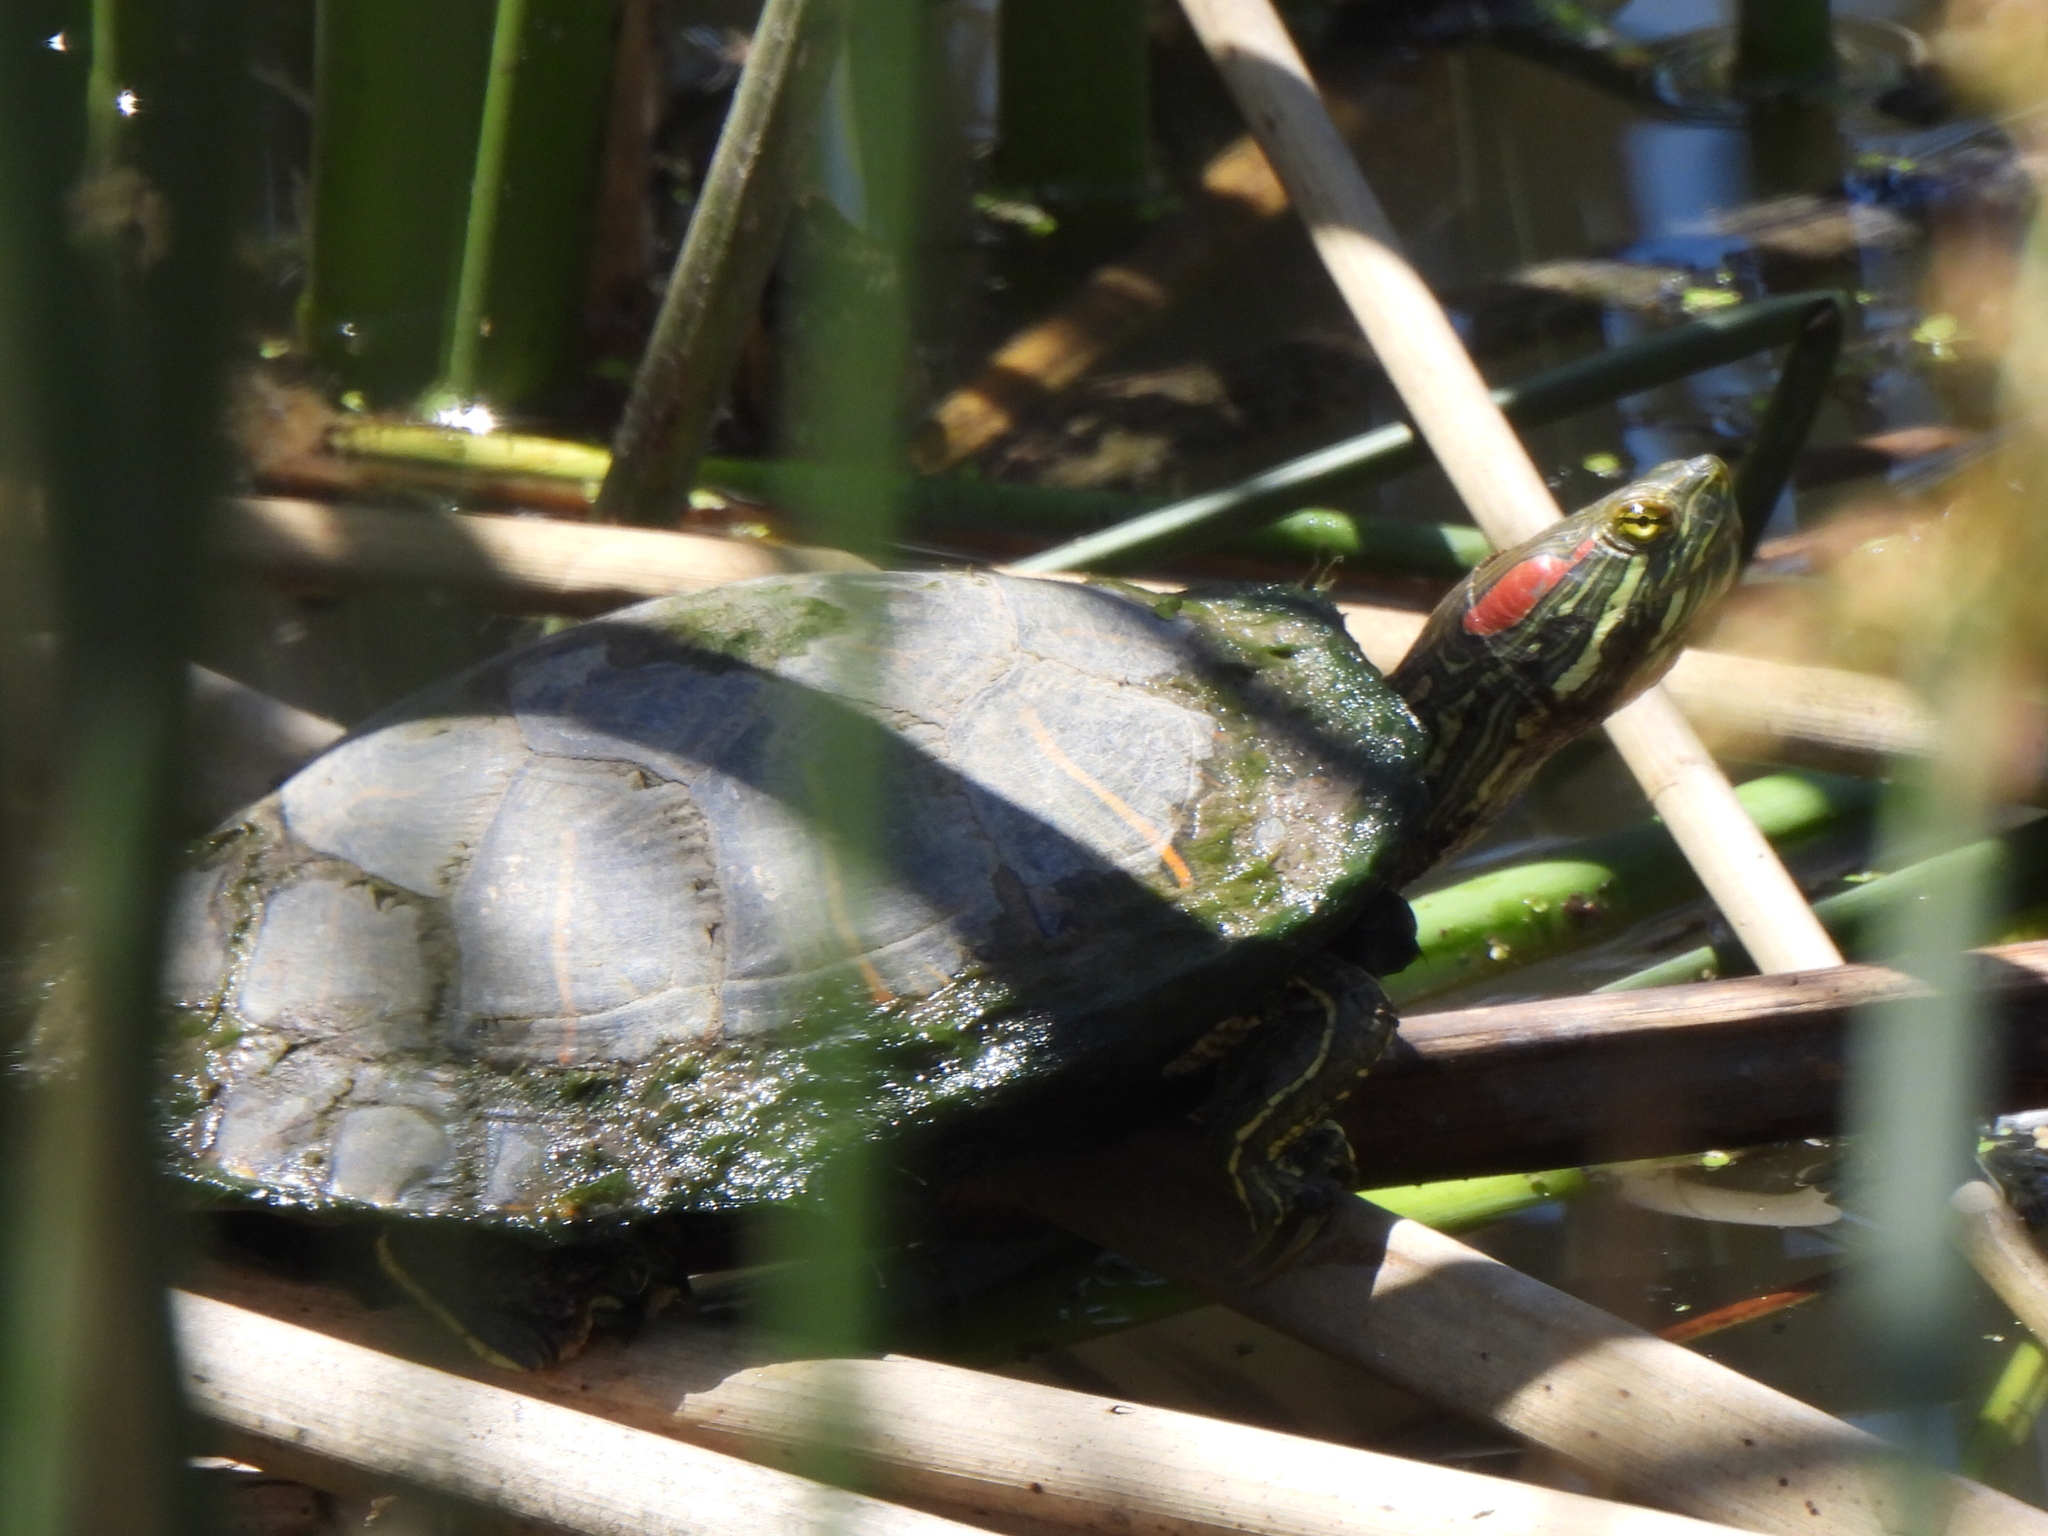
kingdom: Animalia
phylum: Chordata
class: Testudines
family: Emydidae
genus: Trachemys
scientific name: Trachemys scripta
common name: Slider
